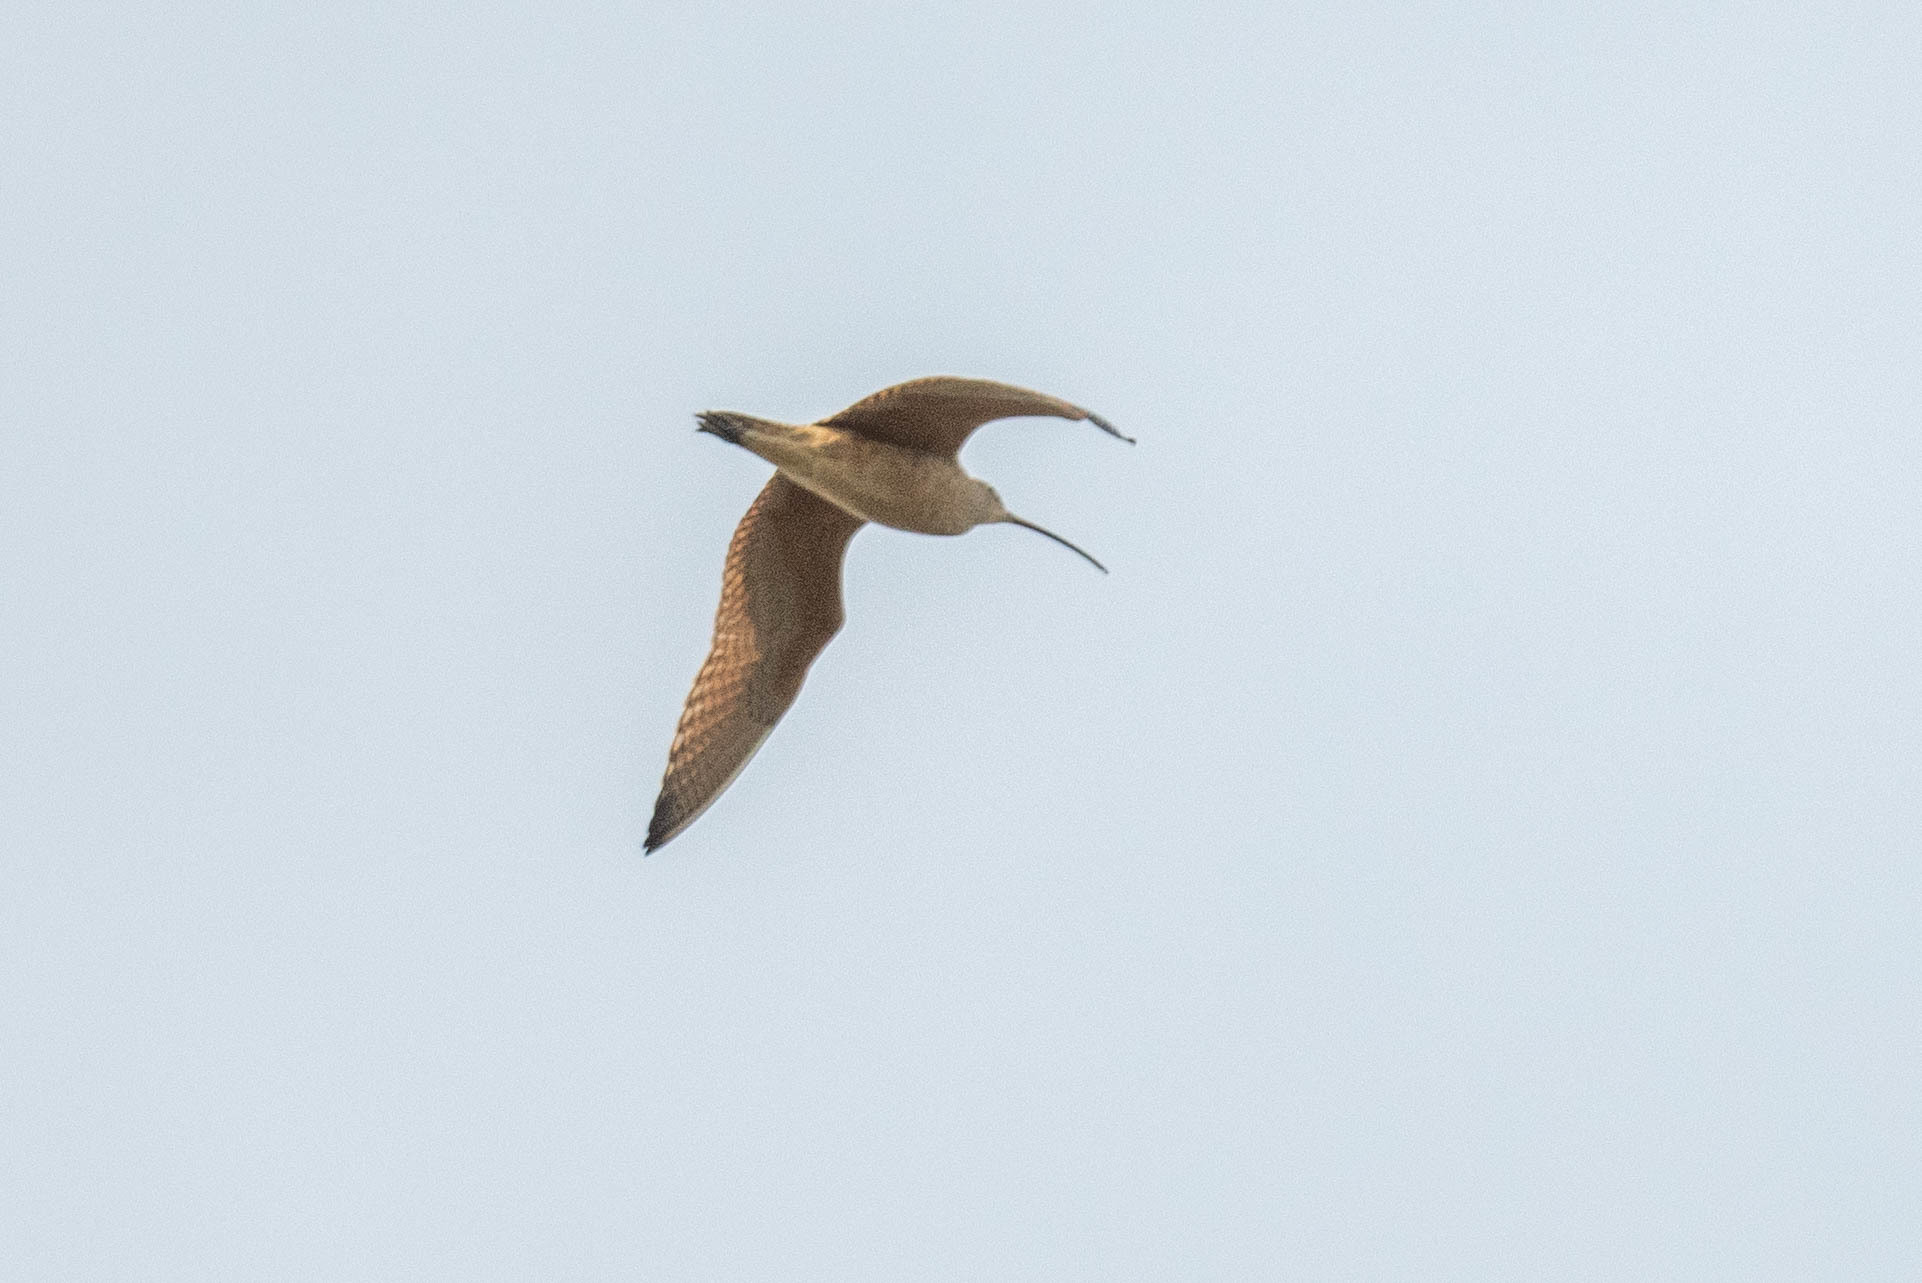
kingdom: Animalia
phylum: Chordata
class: Aves
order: Charadriiformes
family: Scolopacidae
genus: Numenius
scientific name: Numenius americanus
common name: Long-billed curlew
